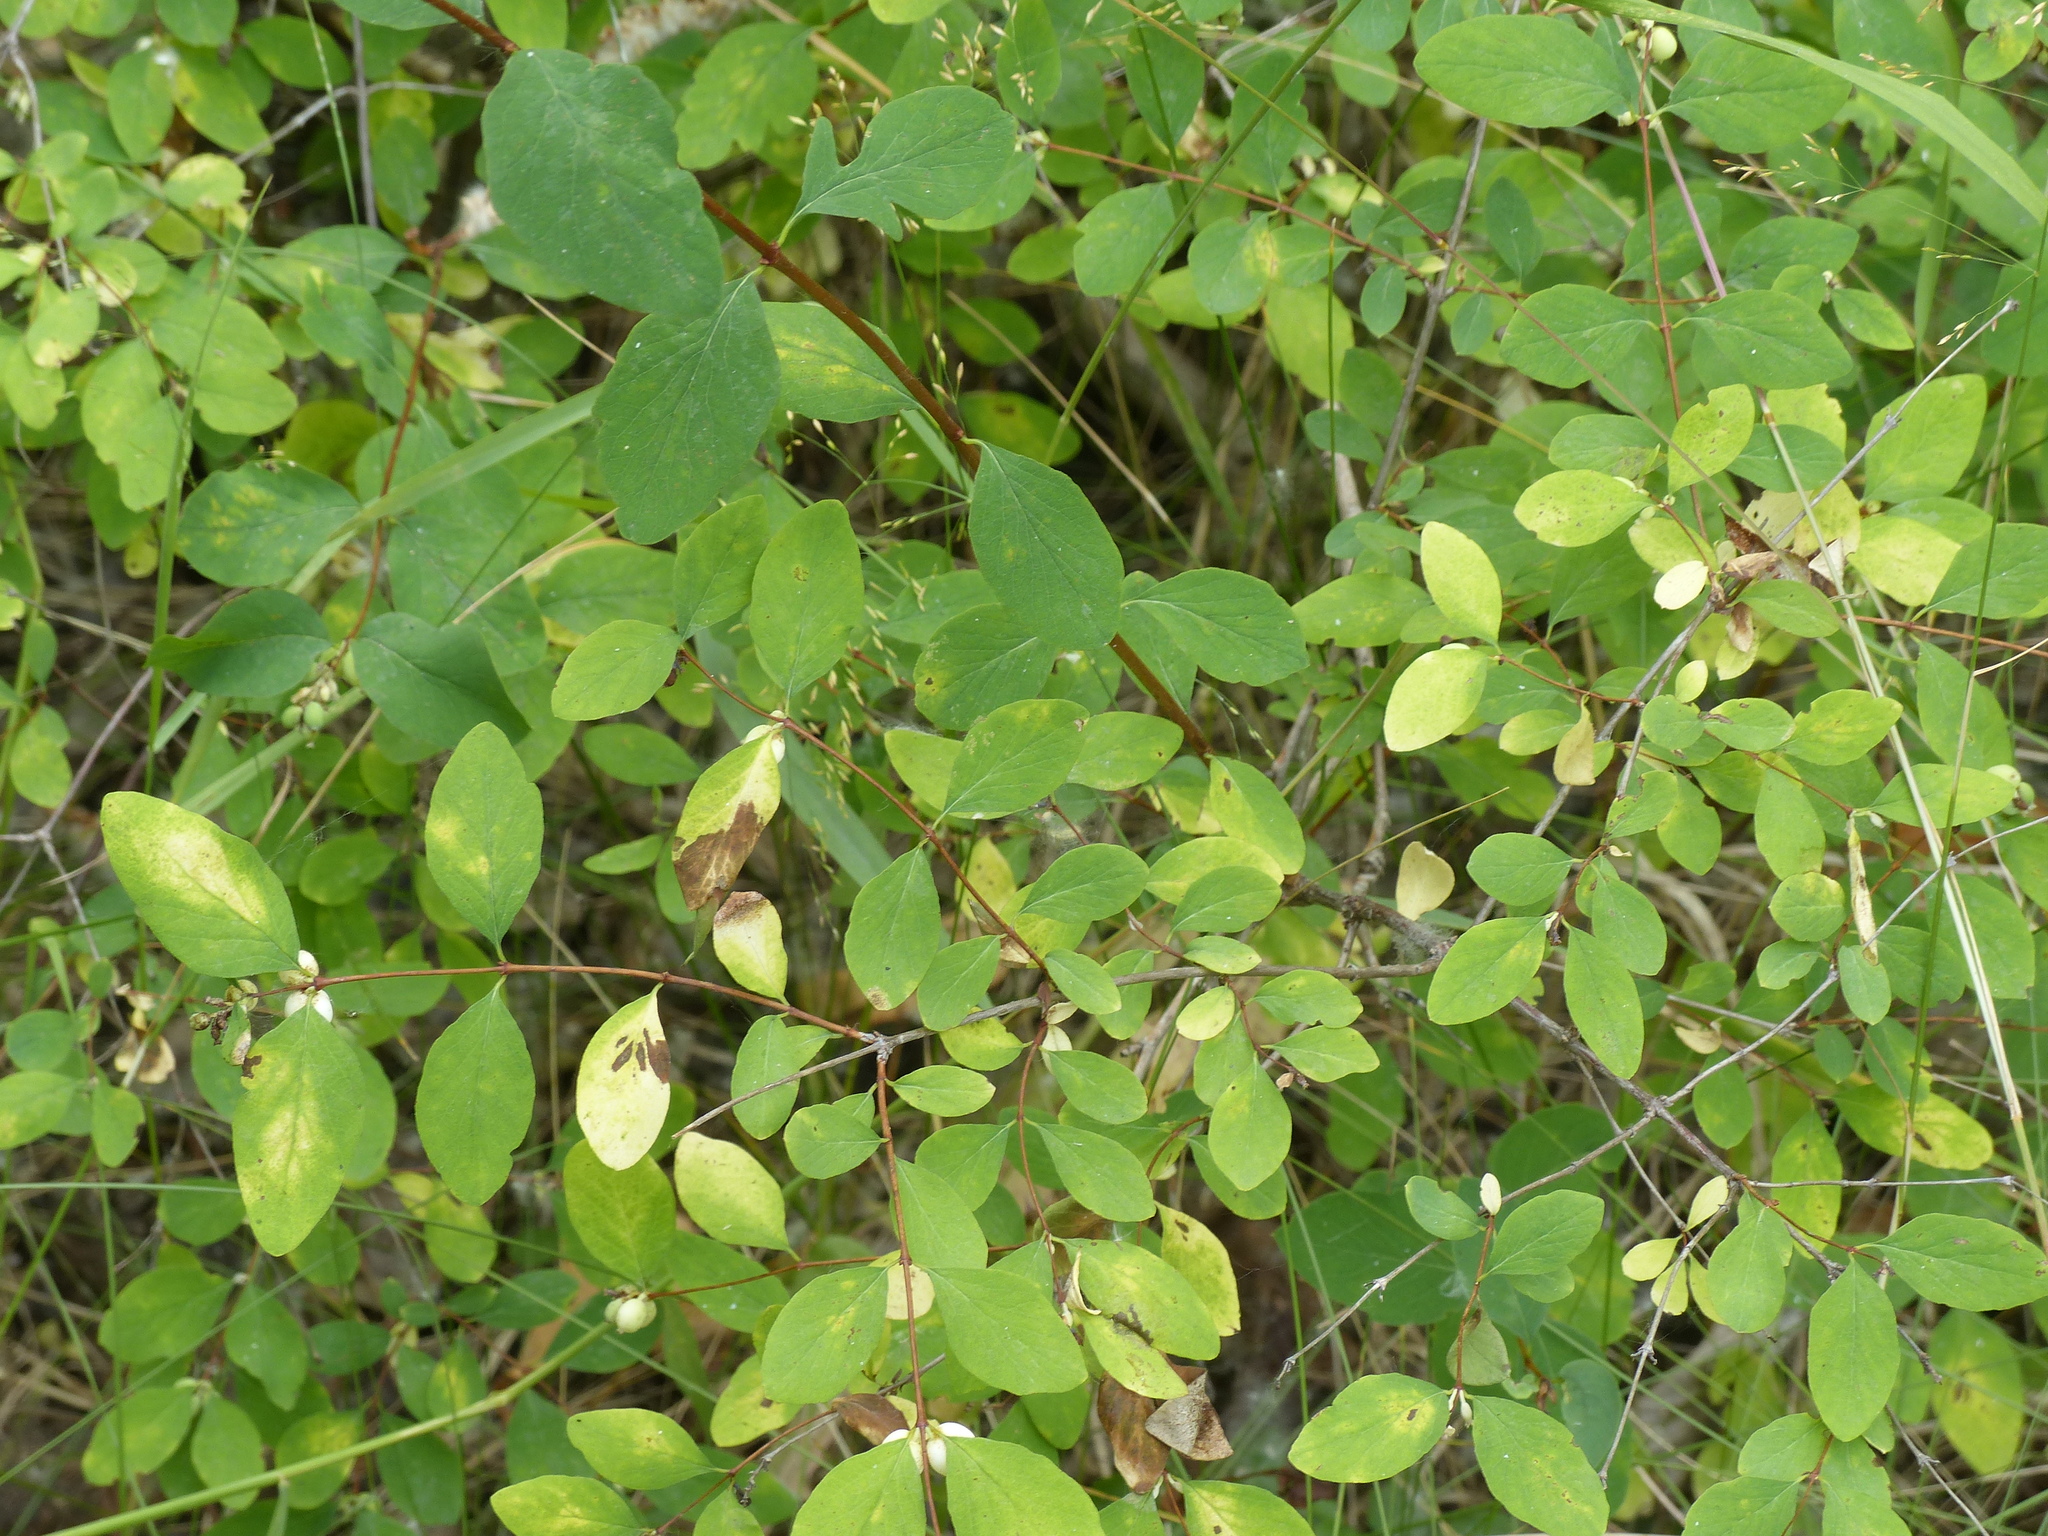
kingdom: Plantae
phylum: Tracheophyta
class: Magnoliopsida
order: Dipsacales
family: Caprifoliaceae
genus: Symphoricarpos
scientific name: Symphoricarpos albus
